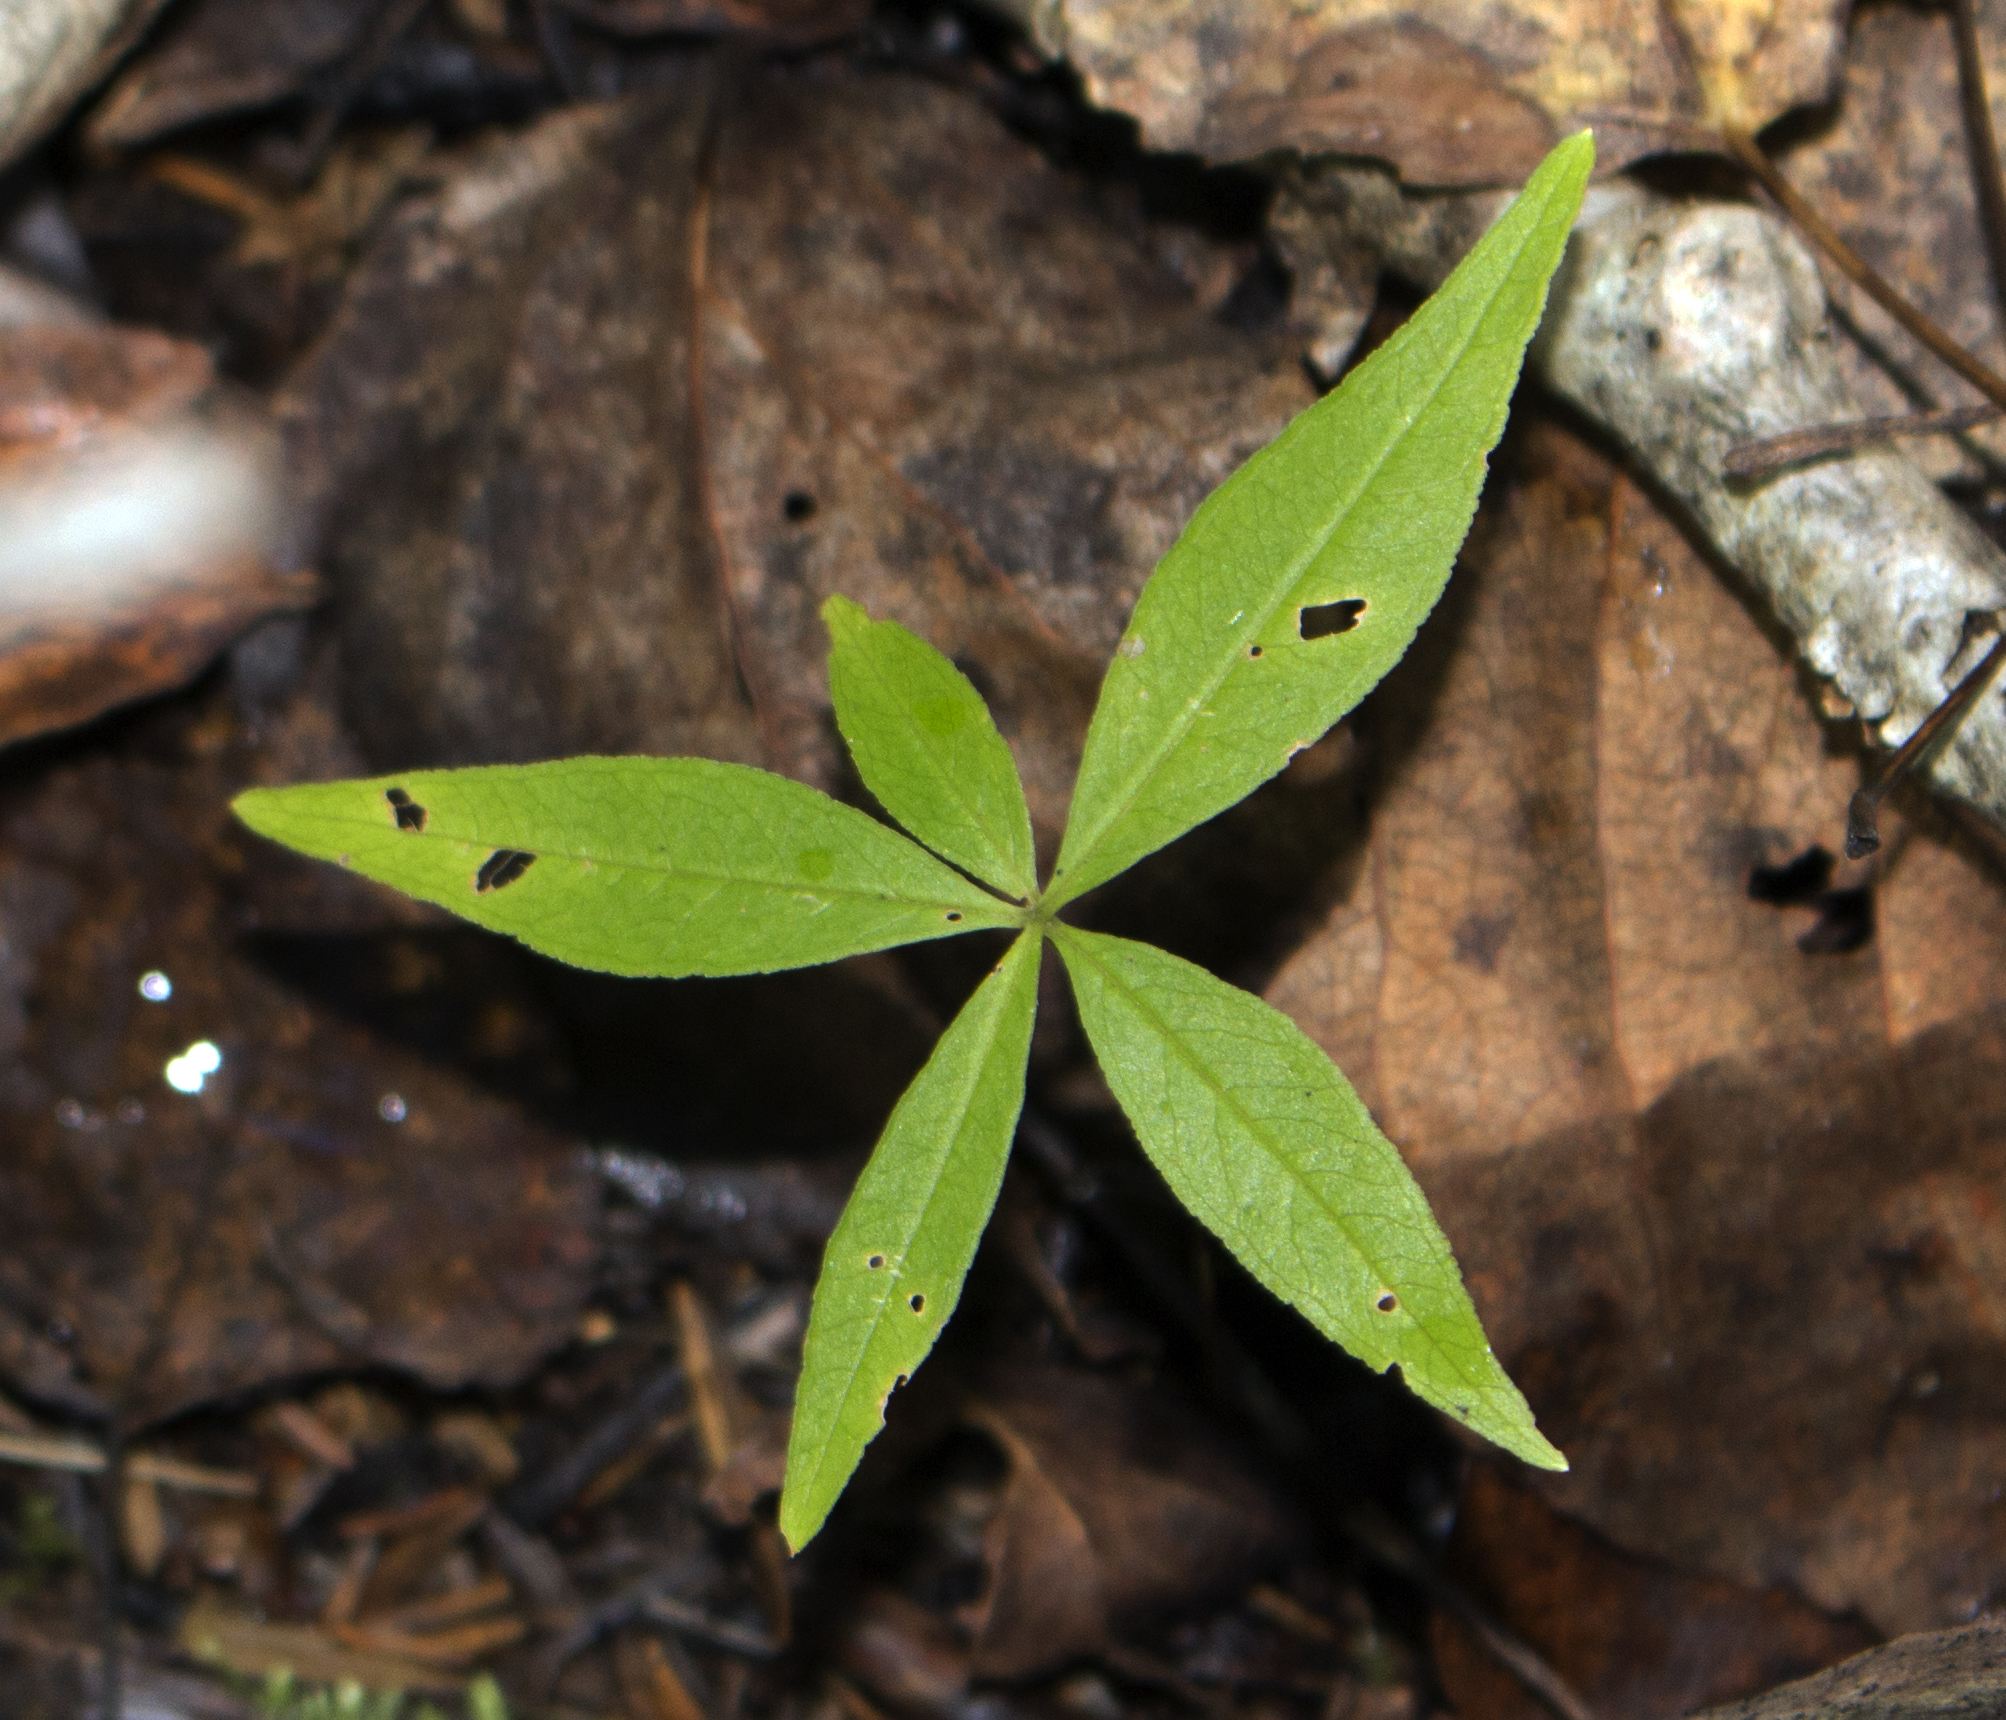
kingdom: Plantae
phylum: Tracheophyta
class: Magnoliopsida
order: Ericales
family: Primulaceae
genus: Lysimachia
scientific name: Lysimachia borealis
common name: American starflower
